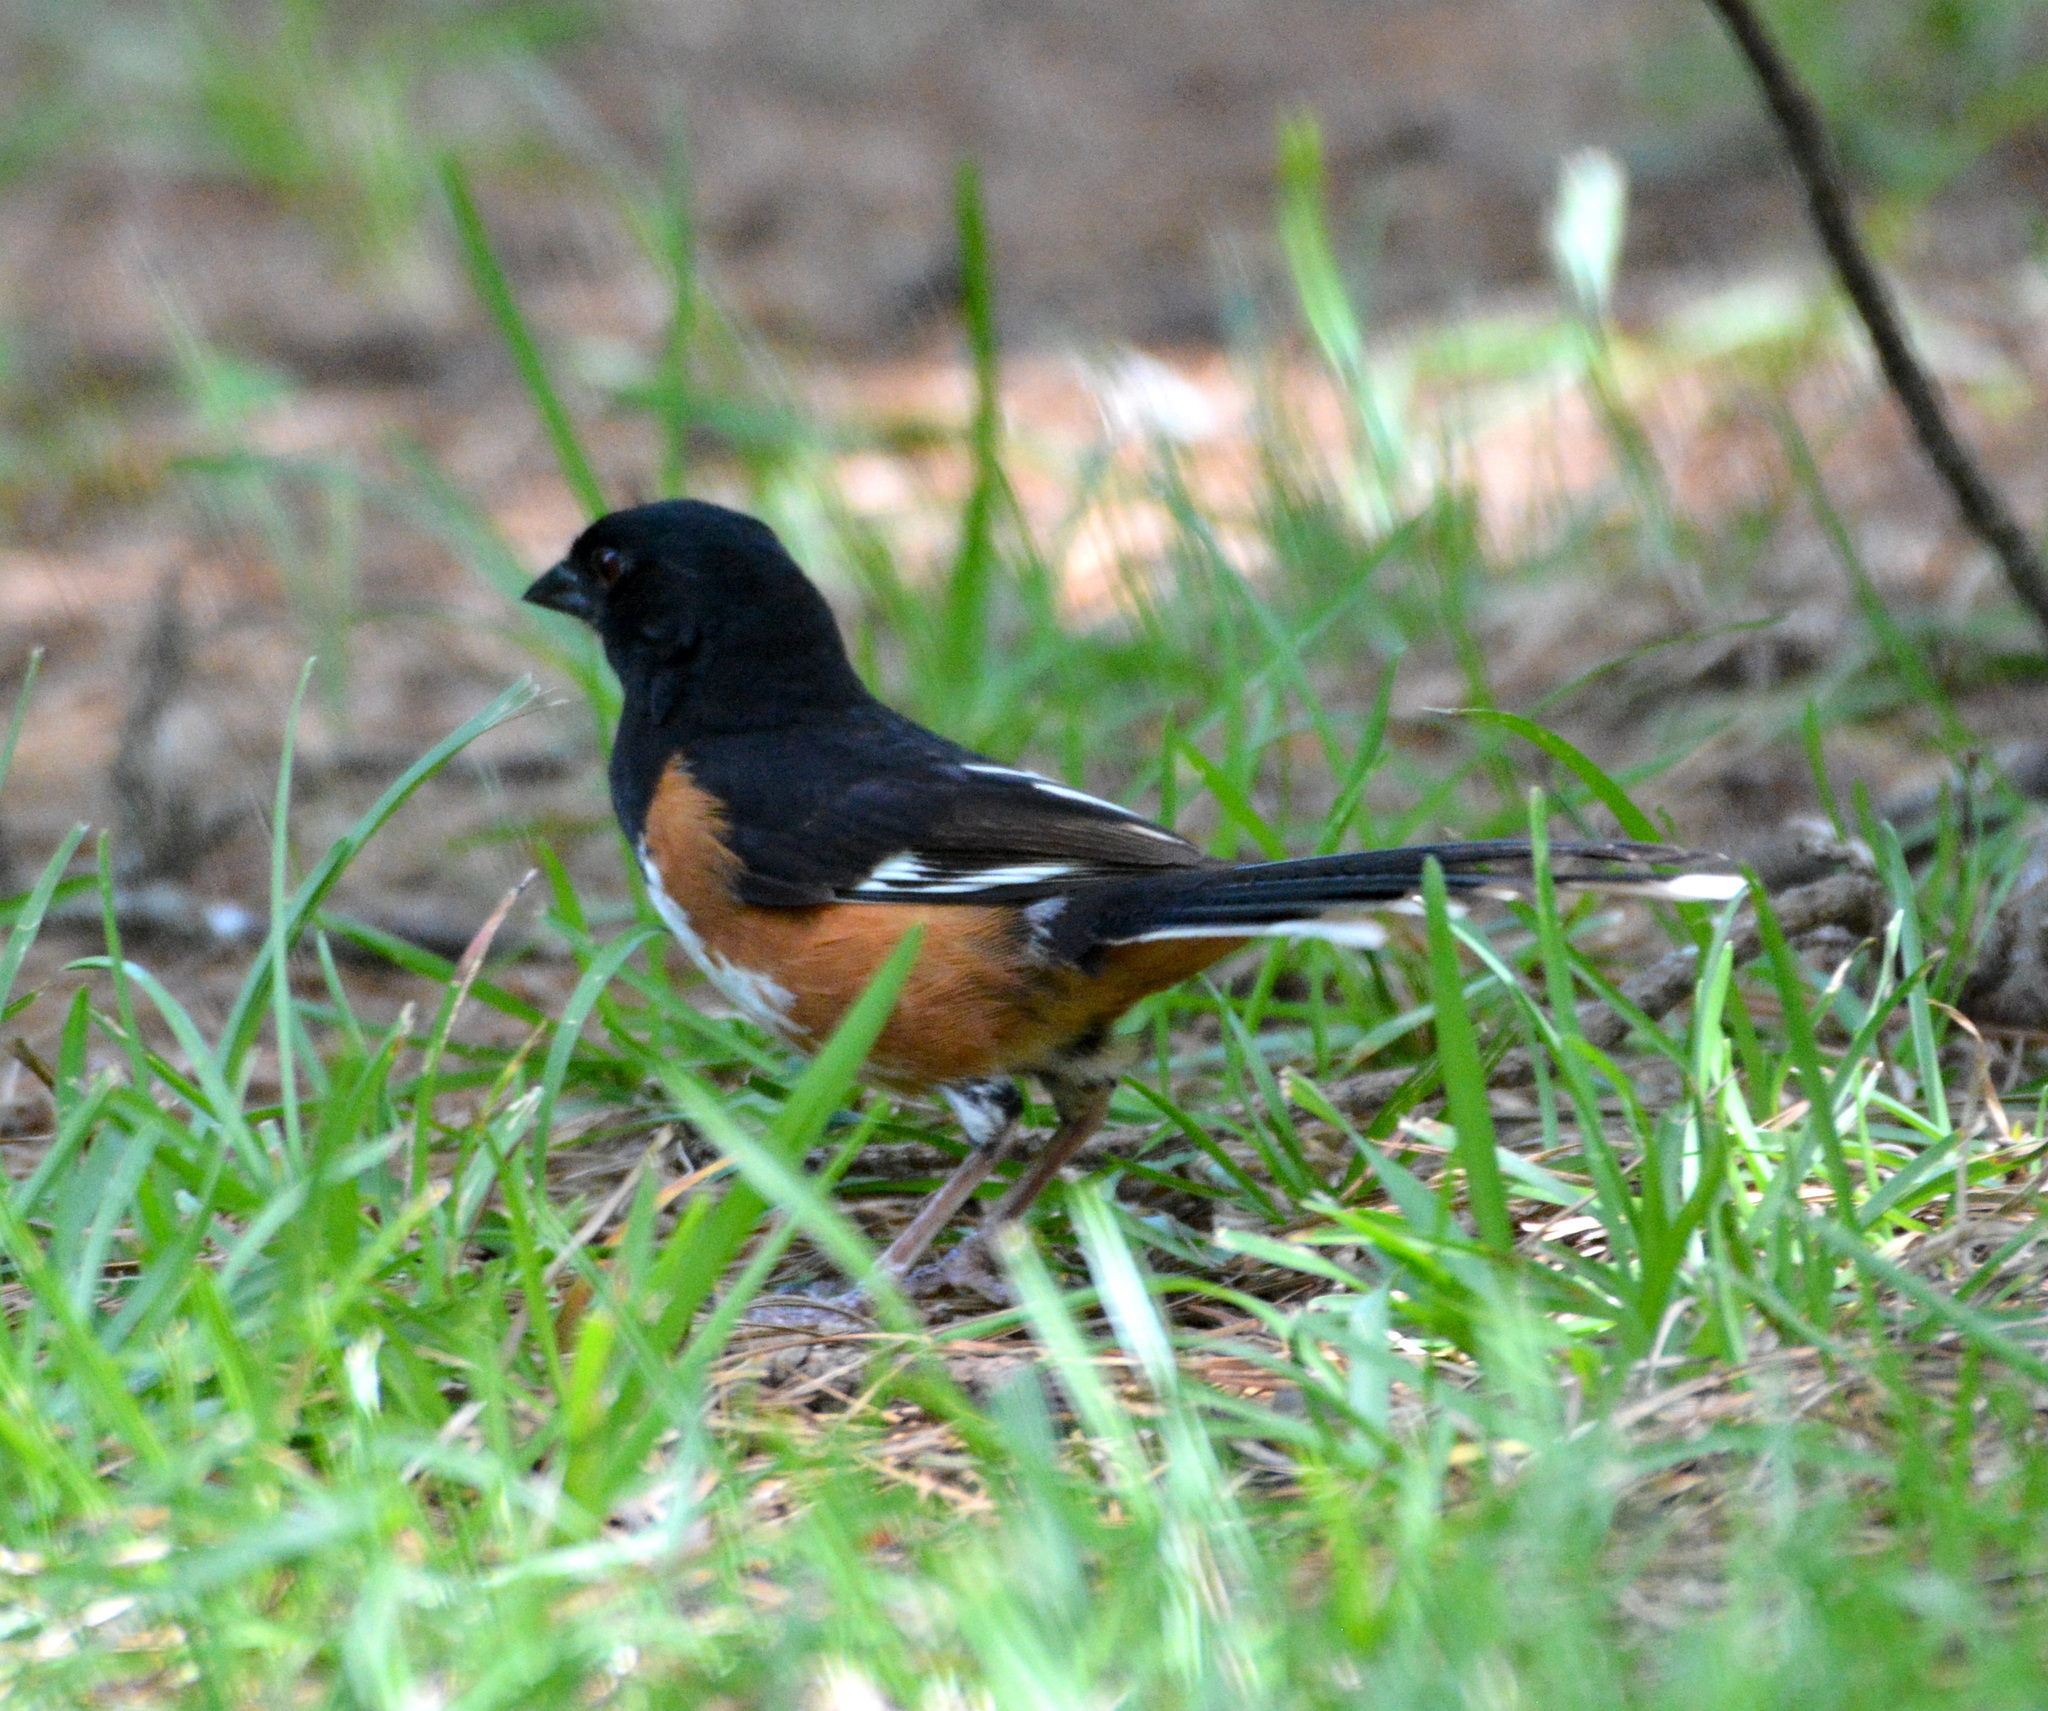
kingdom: Animalia
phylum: Chordata
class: Aves
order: Passeriformes
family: Passerellidae
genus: Pipilo
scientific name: Pipilo erythrophthalmus
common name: Eastern towhee
